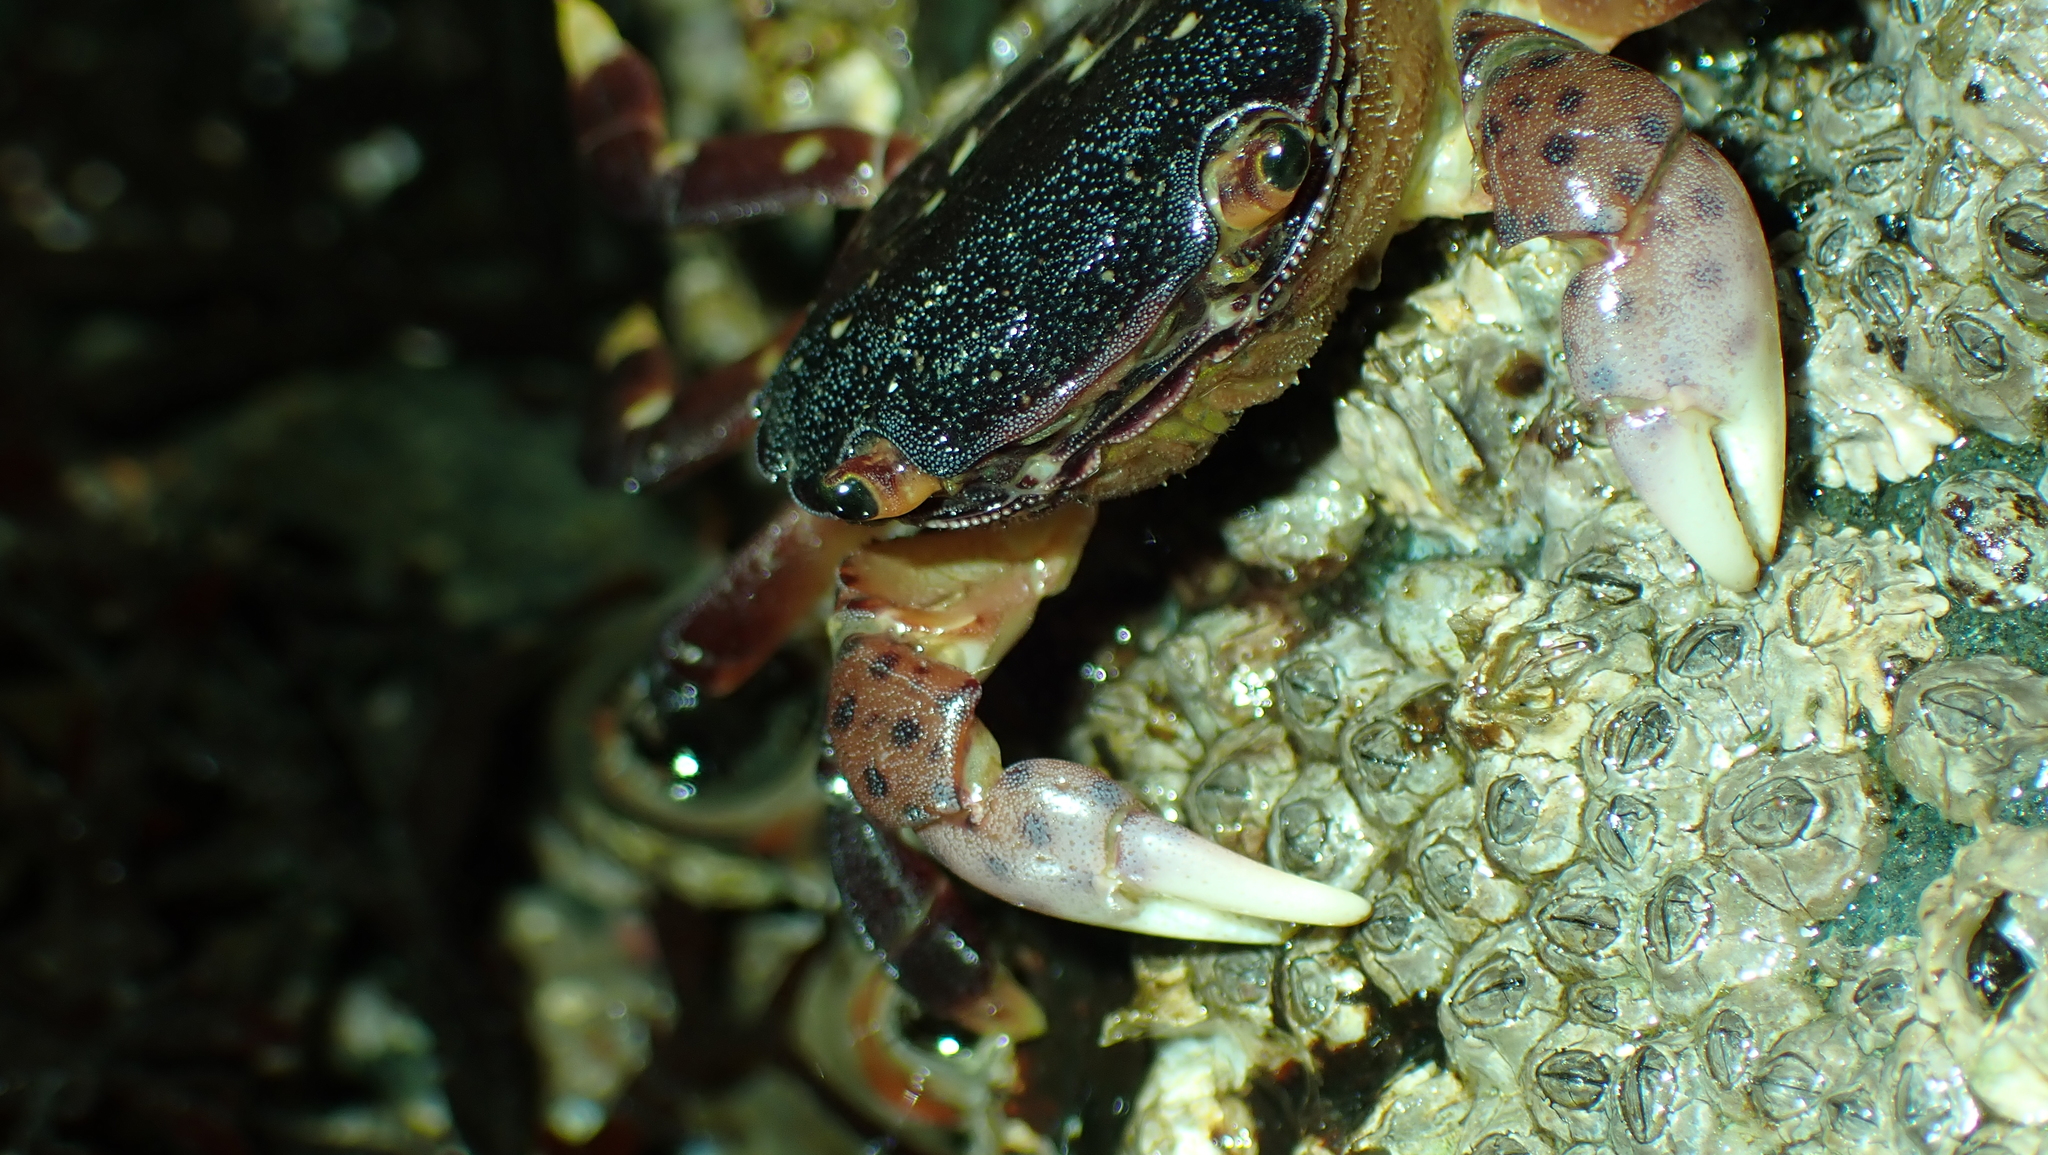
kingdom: Animalia
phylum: Arthropoda
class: Malacostraca
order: Decapoda
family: Varunidae
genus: Hemigrapsus
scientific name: Hemigrapsus nudus
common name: Purple shore crab
